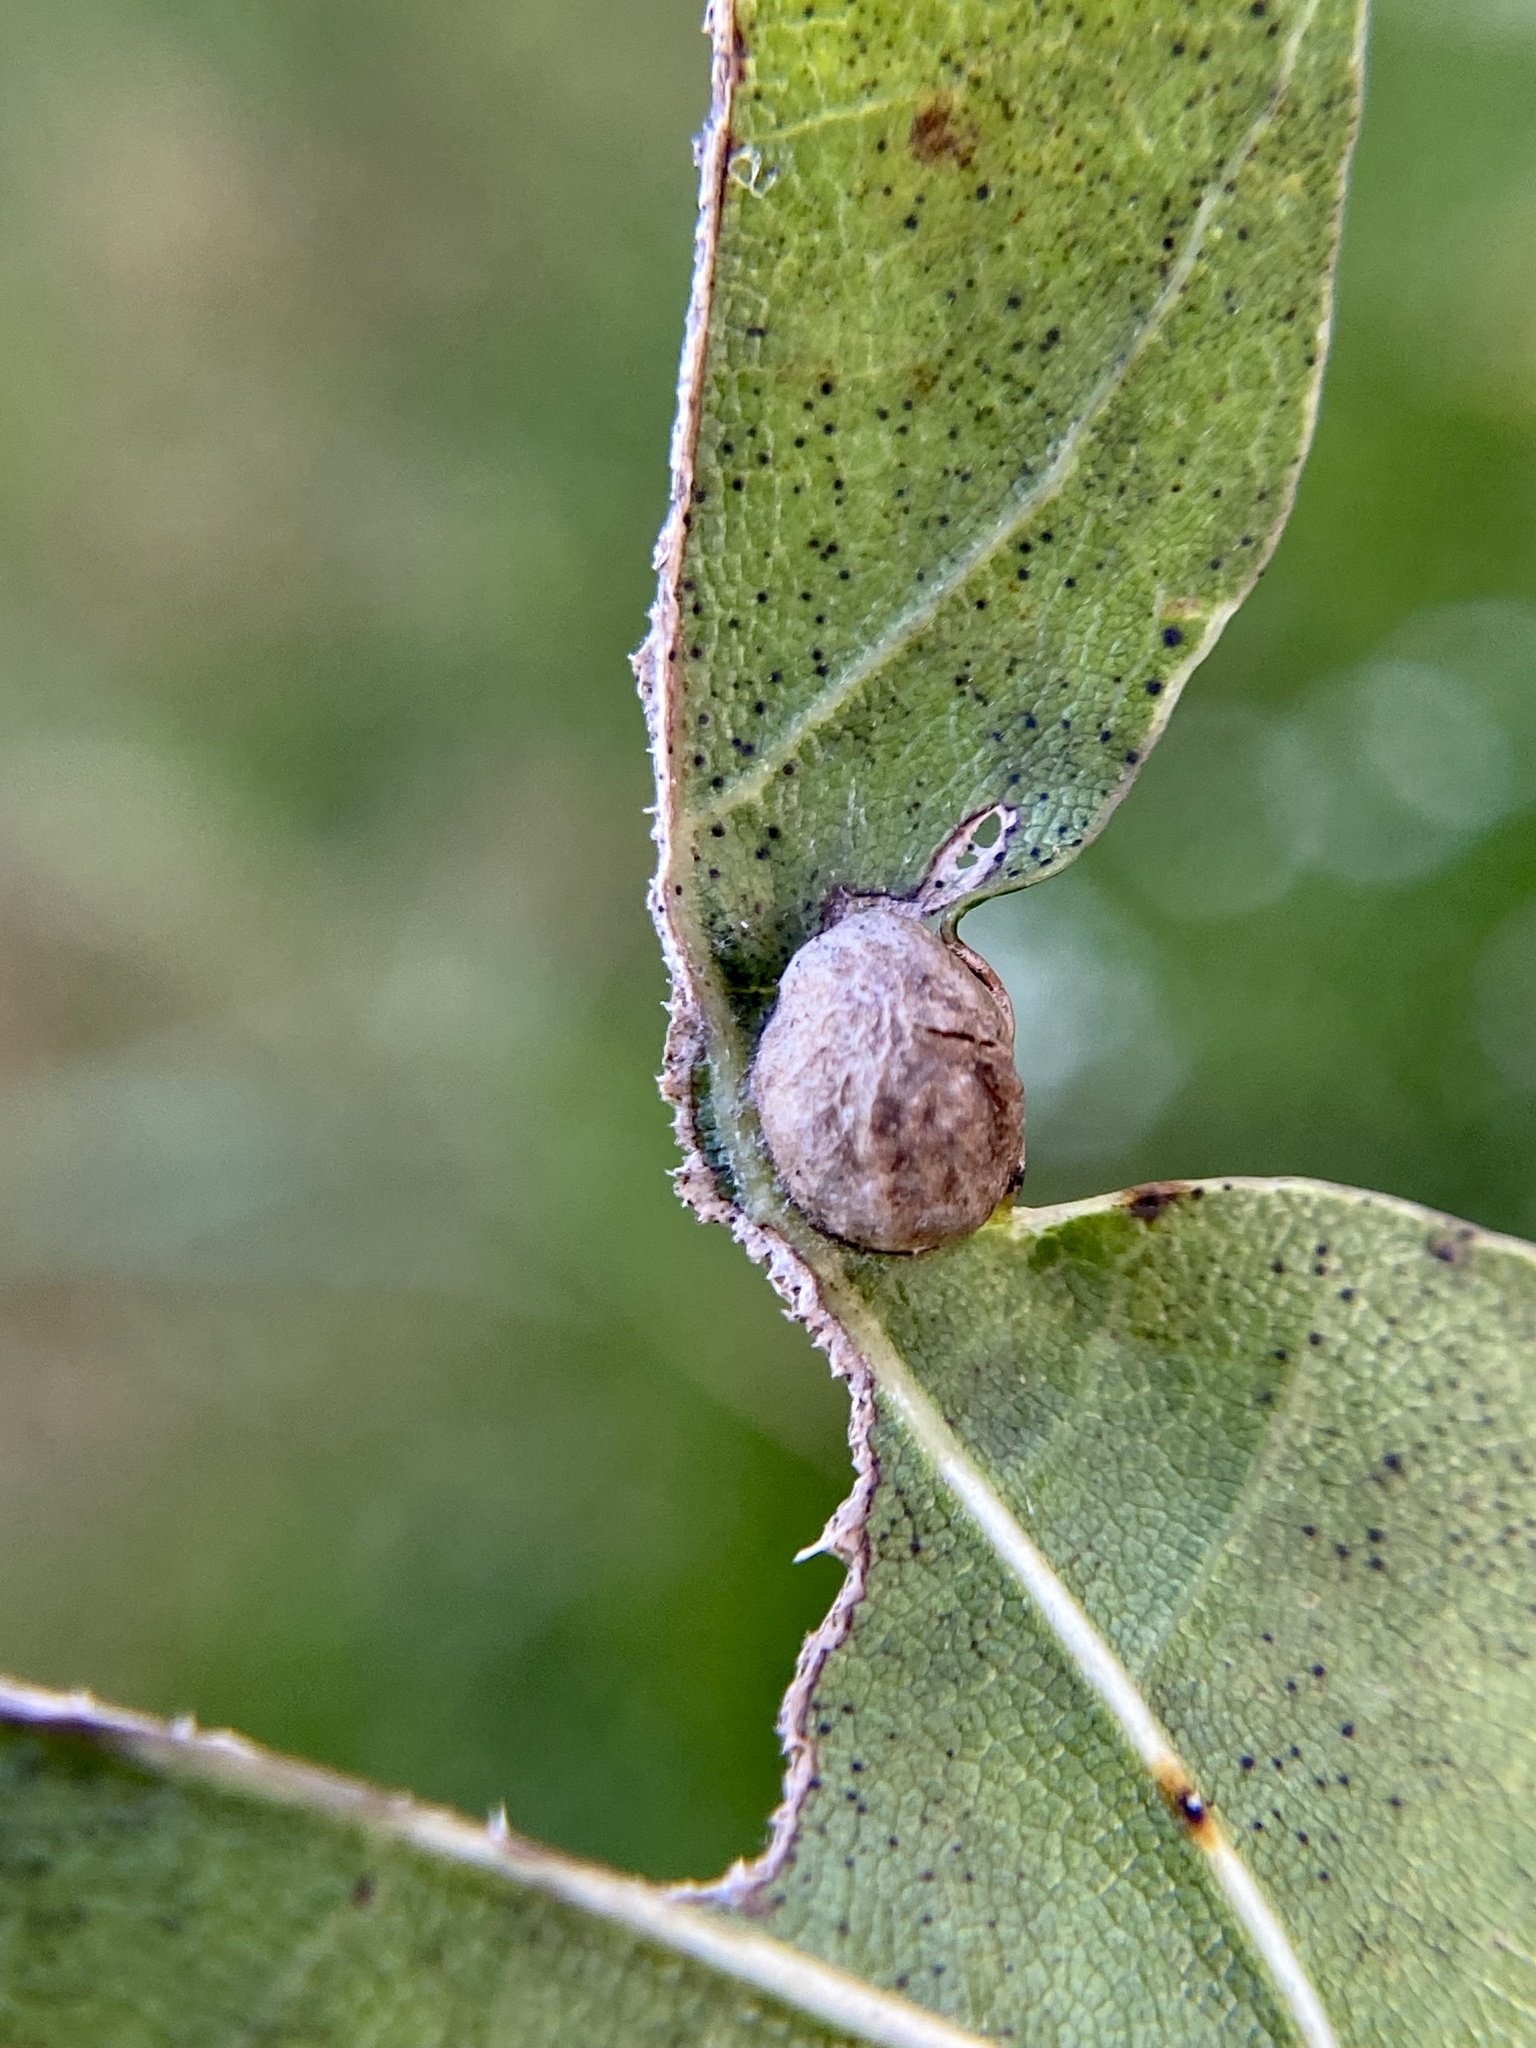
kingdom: Animalia
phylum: Arthropoda
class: Insecta
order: Hymenoptera
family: Cynipidae
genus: Dryocosmus
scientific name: Dryocosmus
